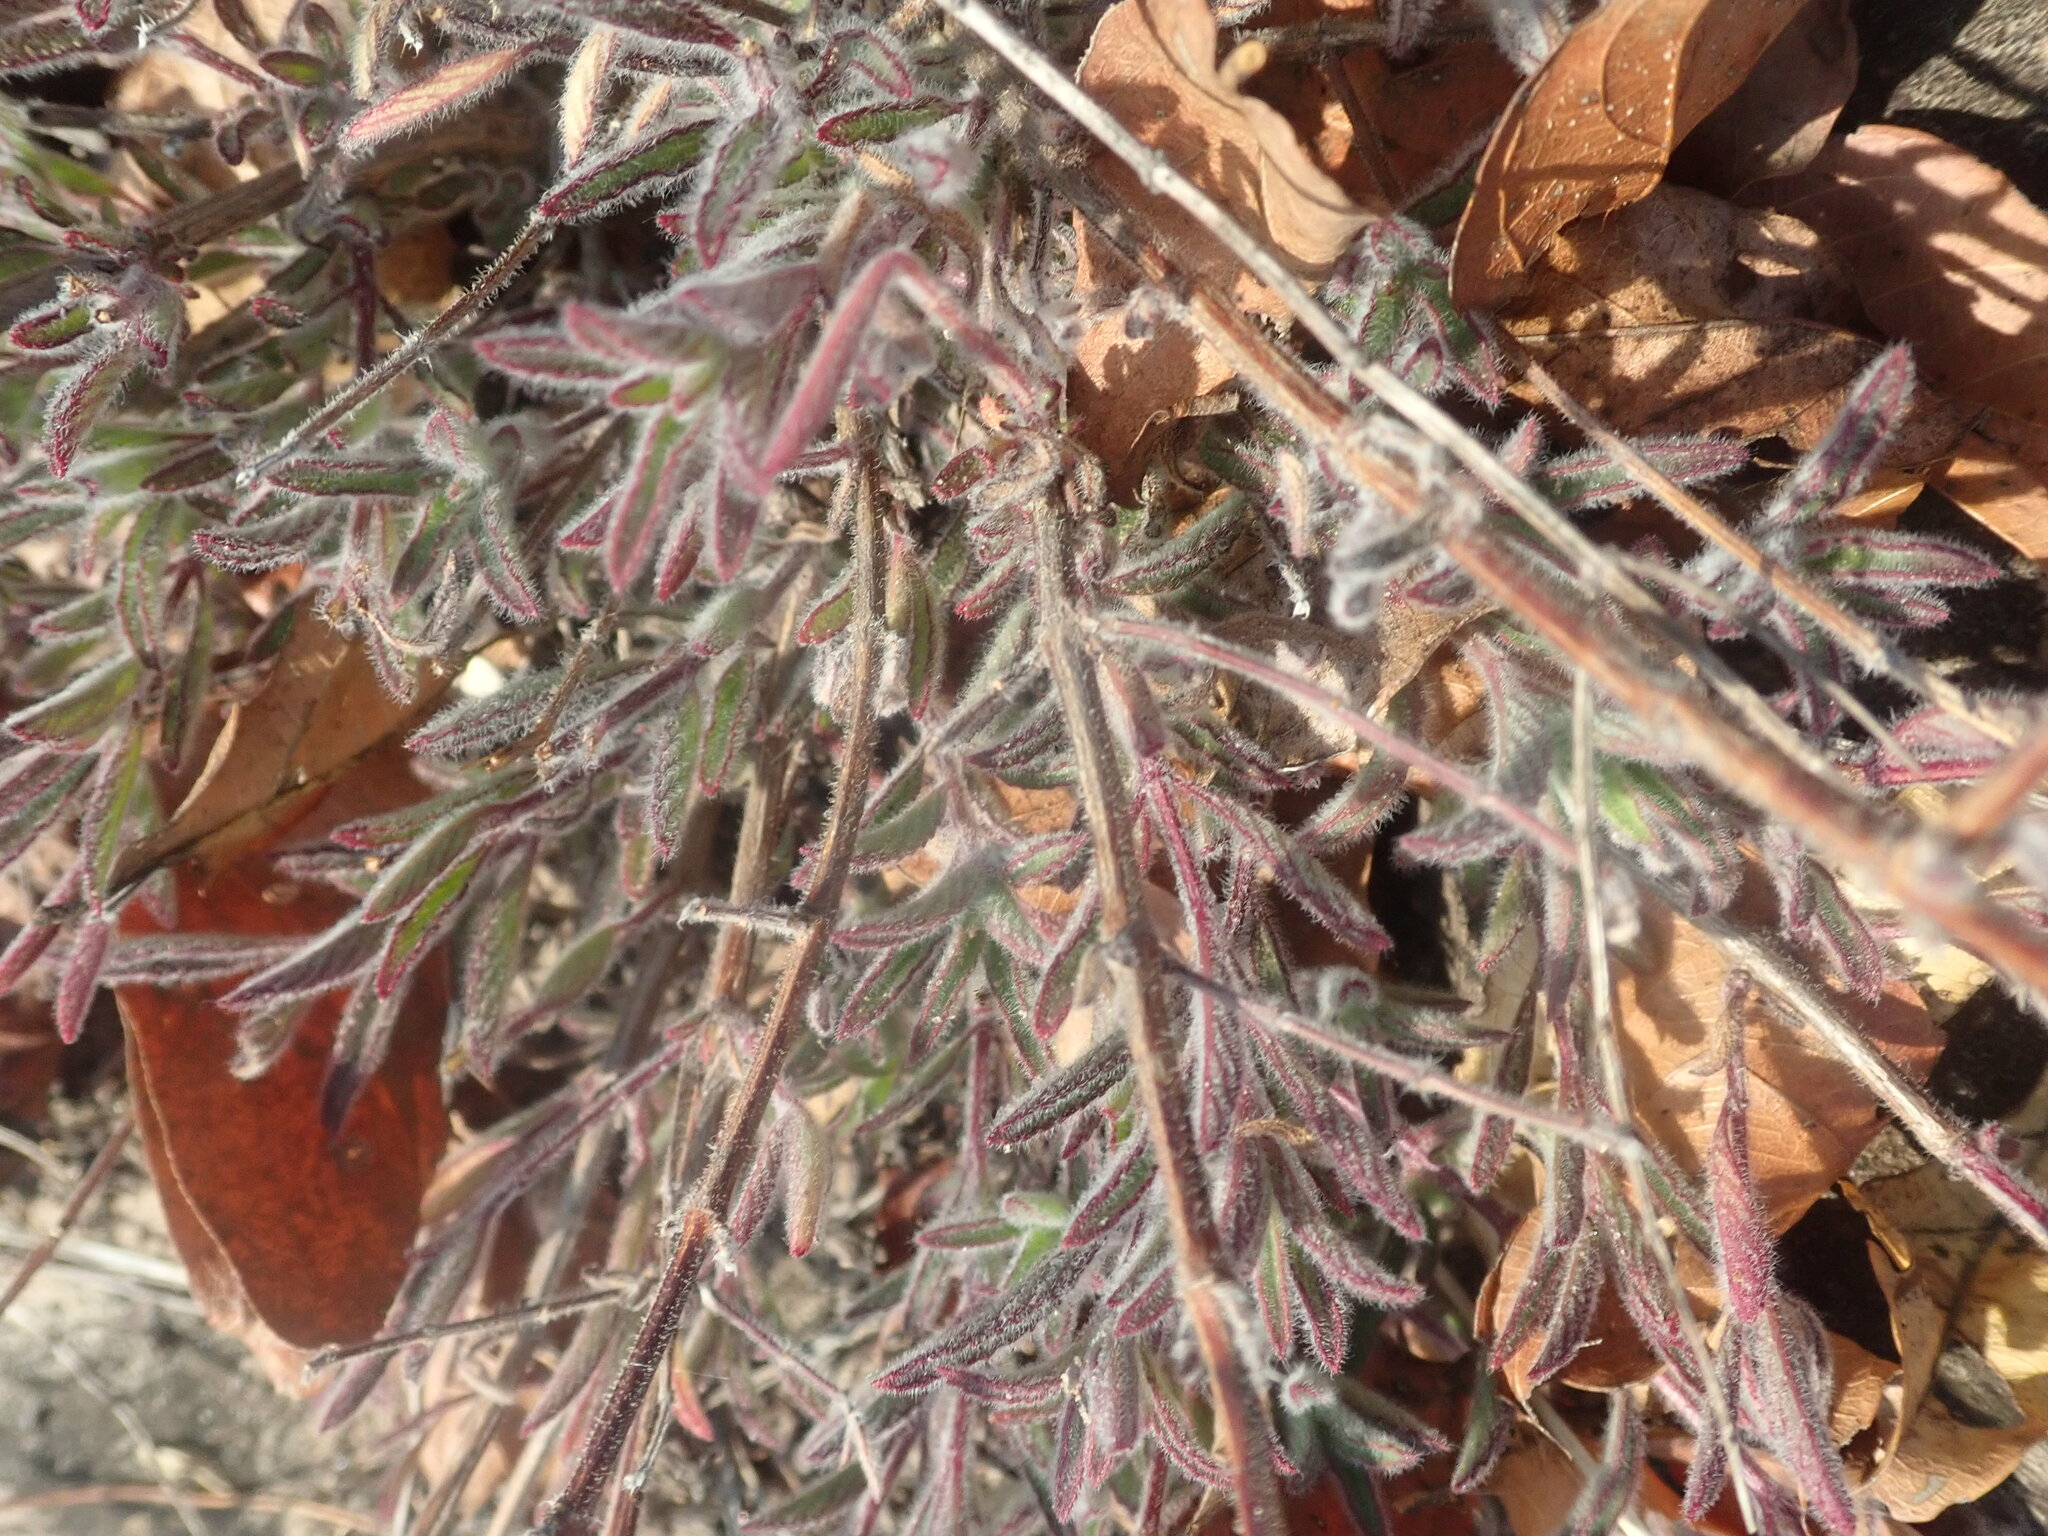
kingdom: Plantae
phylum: Tracheophyta
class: Magnoliopsida
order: Lamiales
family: Lamiaceae
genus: Syncolostemon
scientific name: Syncolostemon canescens
